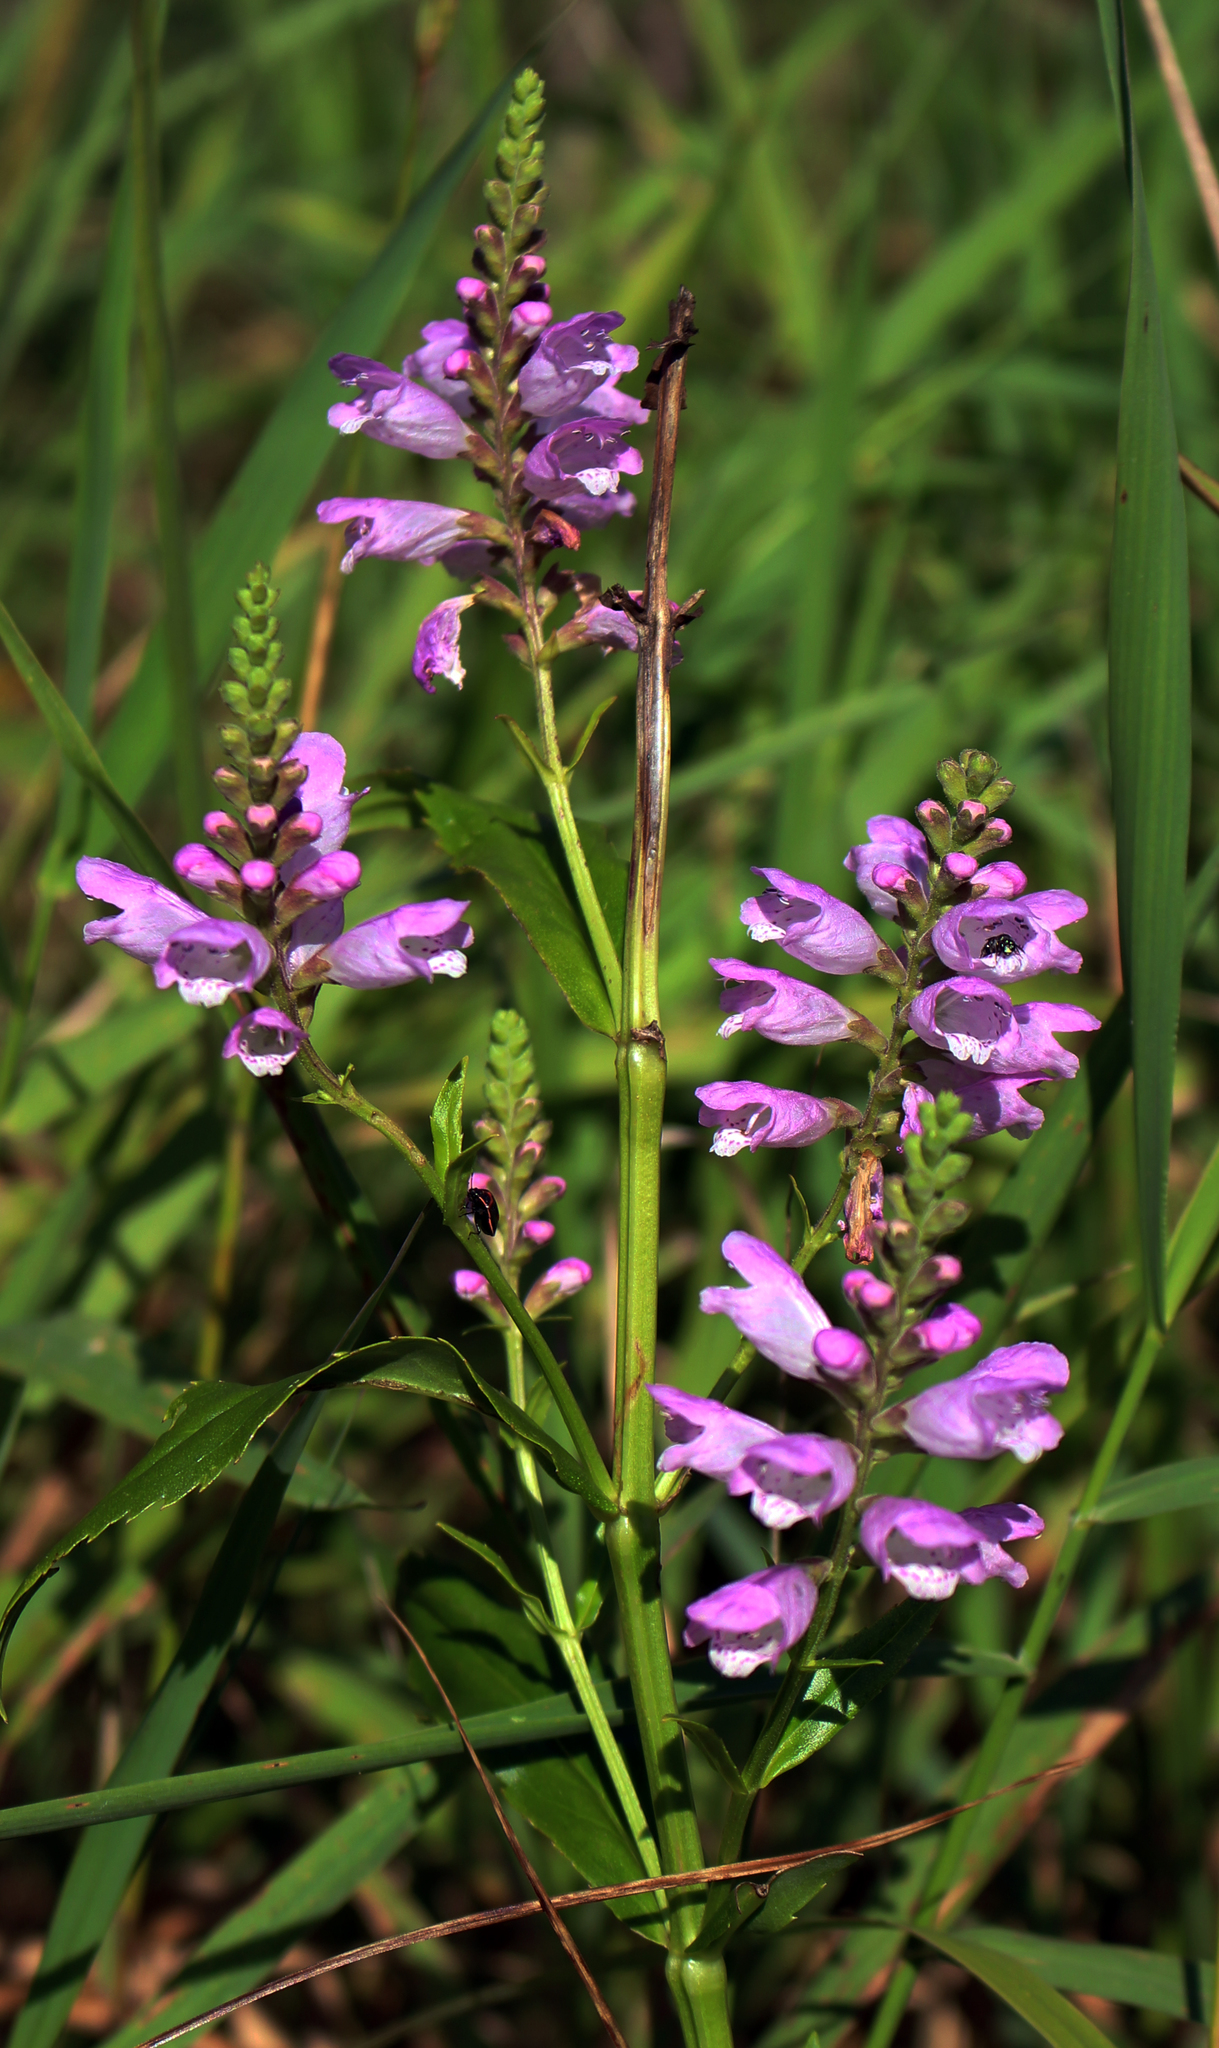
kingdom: Plantae
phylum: Tracheophyta
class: Magnoliopsida
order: Lamiales
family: Lamiaceae
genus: Physostegia
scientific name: Physostegia virginiana
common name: Obedient-plant
